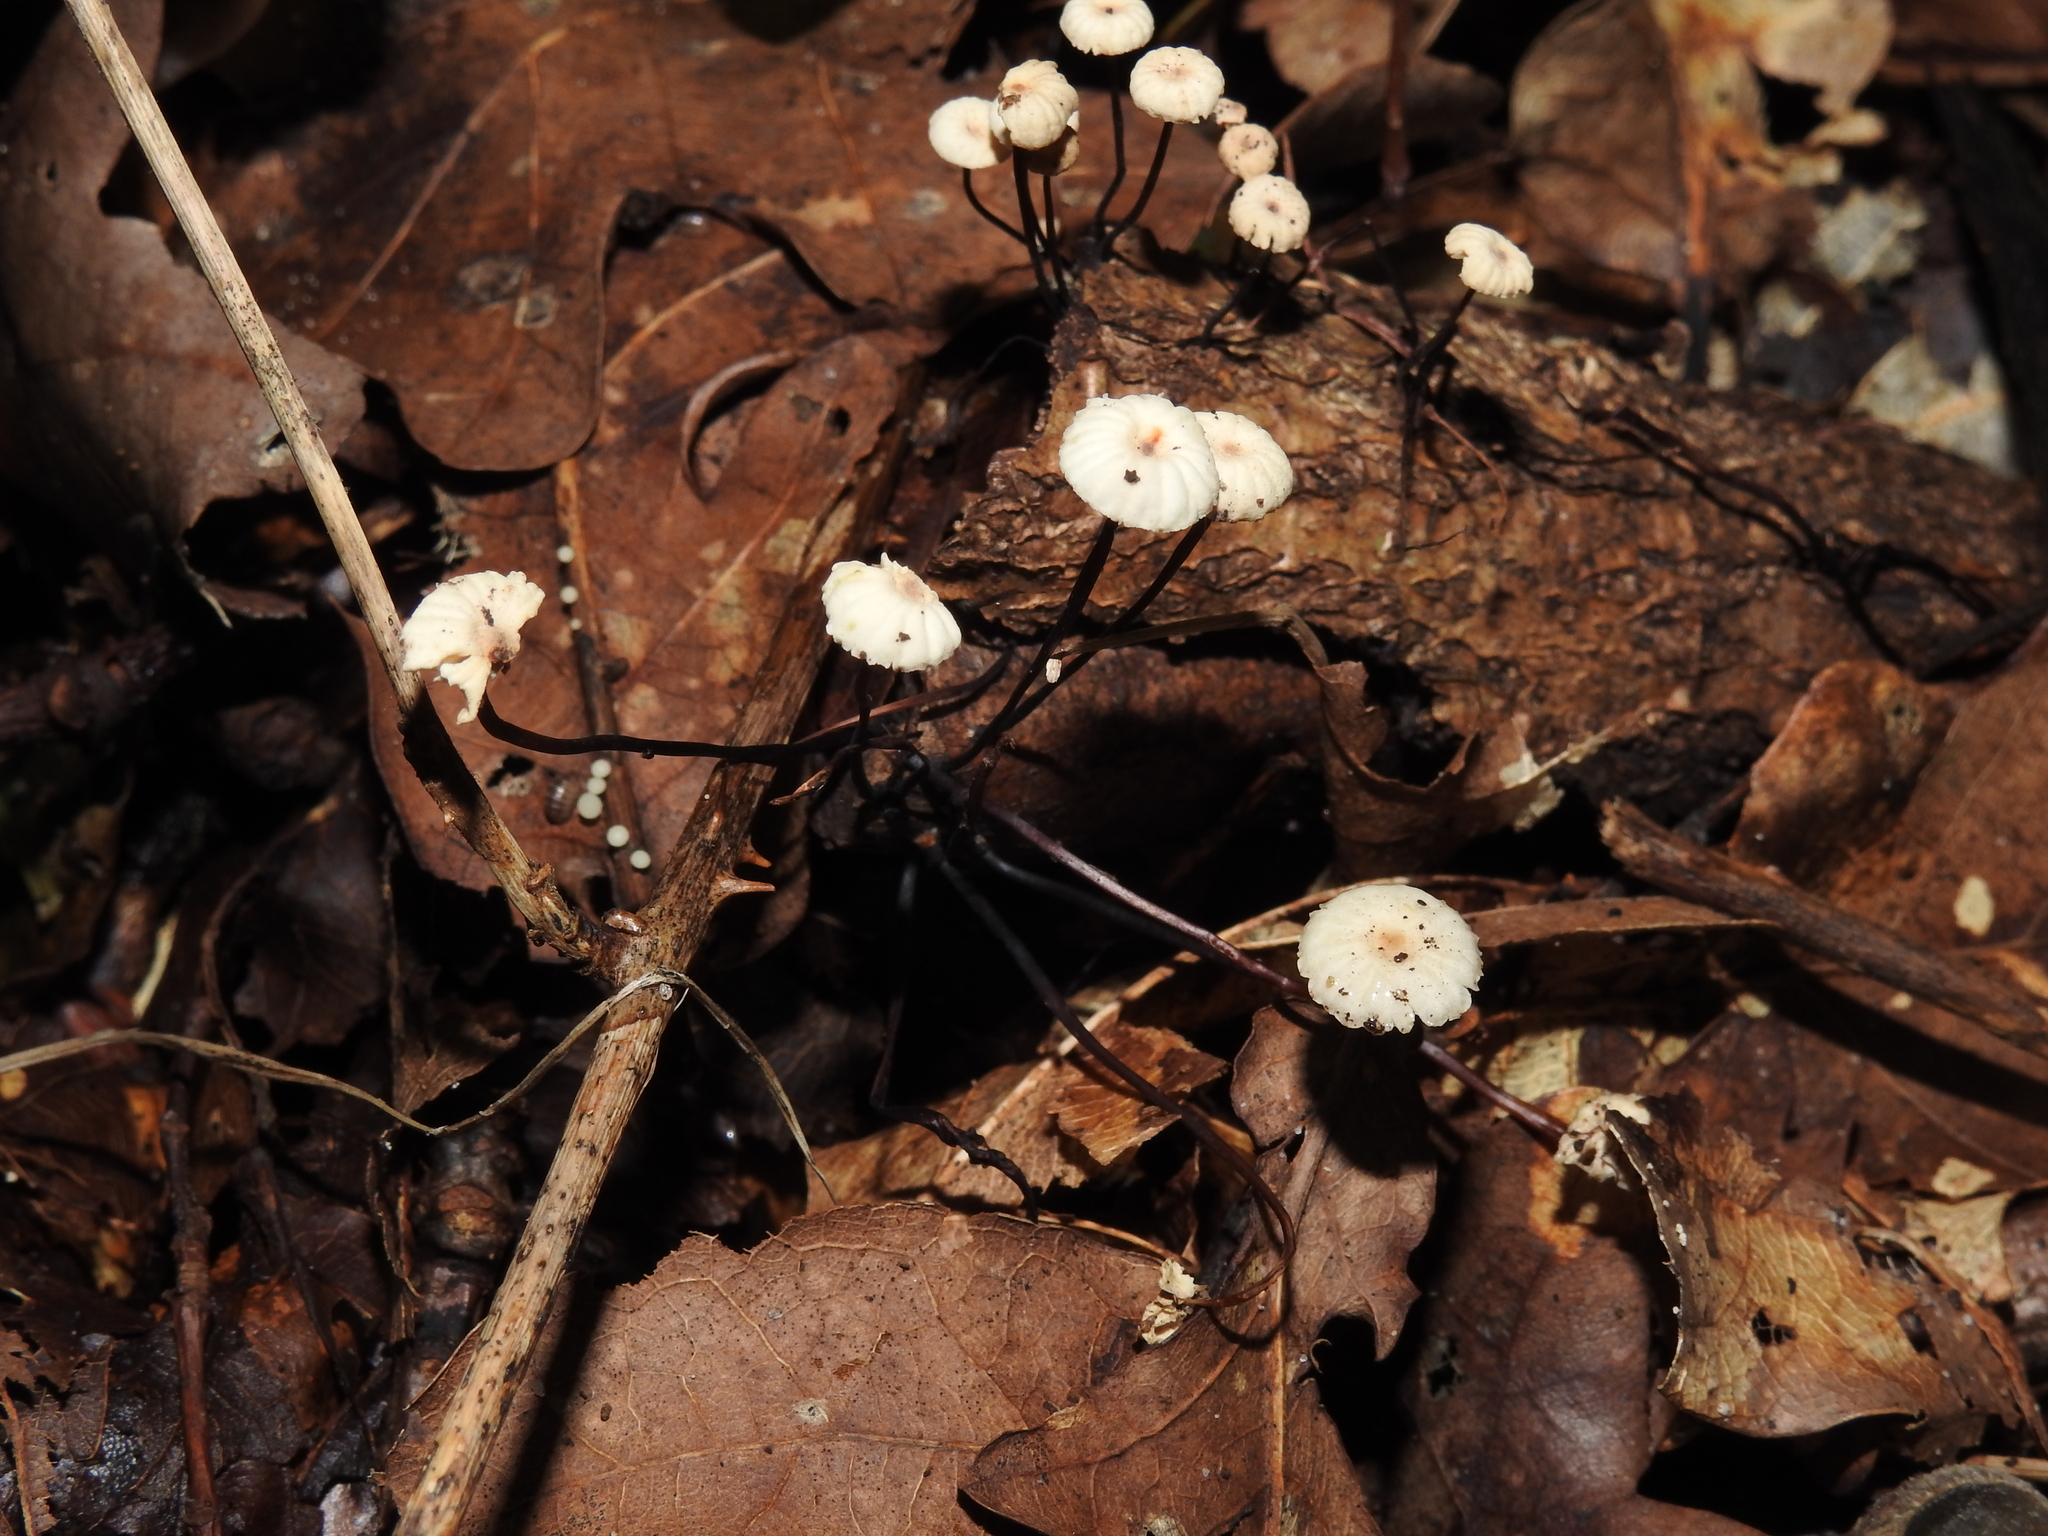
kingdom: Fungi
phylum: Basidiomycota
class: Agaricomycetes
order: Agaricales
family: Marasmiaceae
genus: Marasmius
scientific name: Marasmius rotula
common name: Collared parachute
